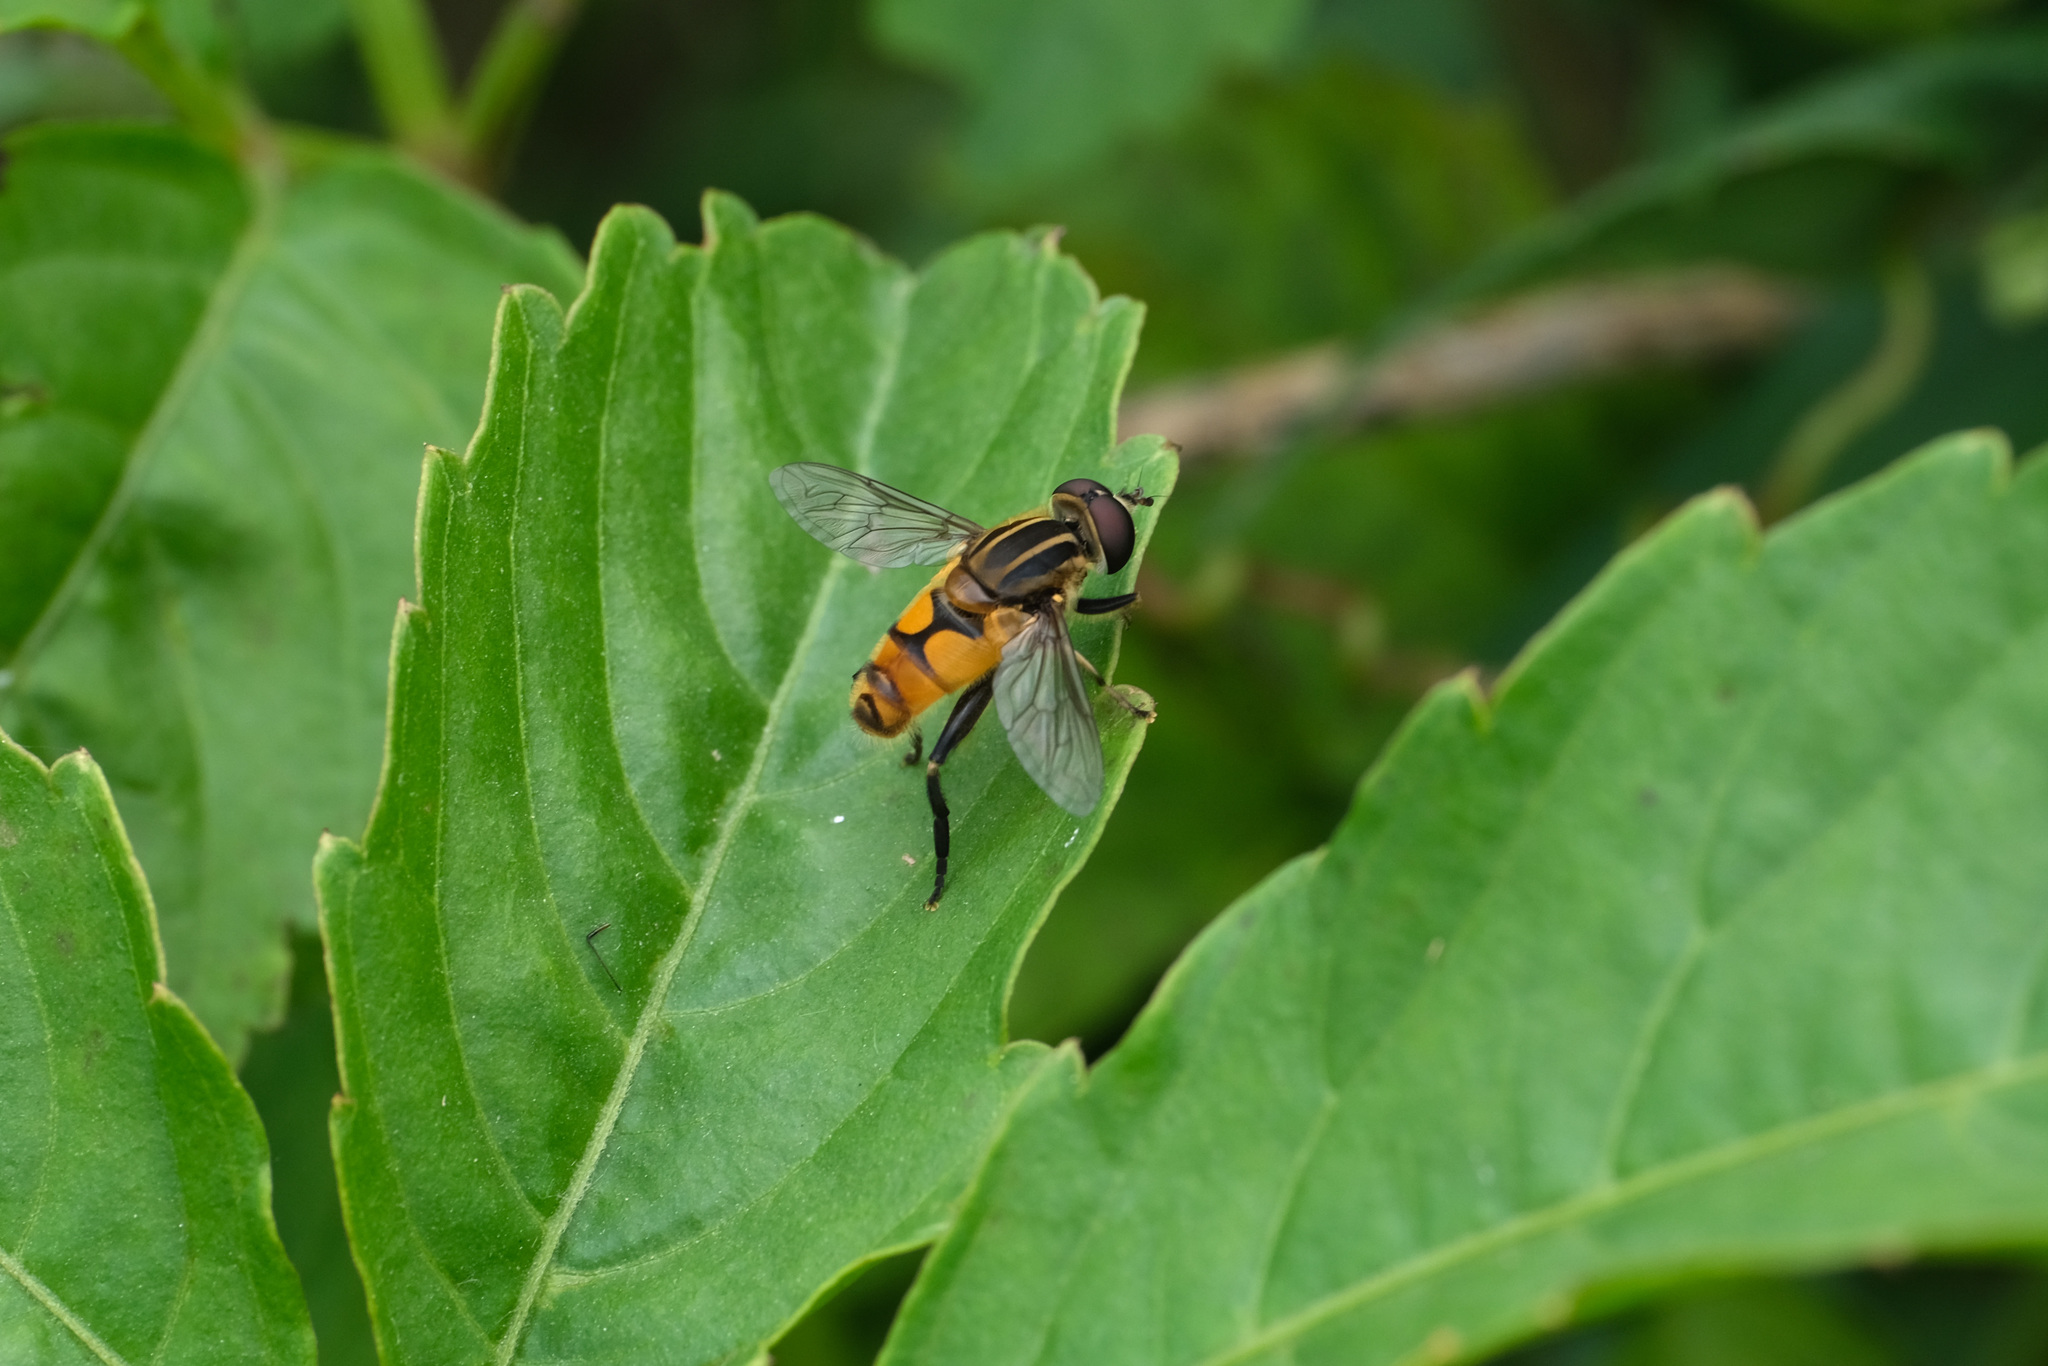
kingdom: Animalia
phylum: Arthropoda
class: Insecta
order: Diptera
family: Syrphidae
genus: Mesembrius
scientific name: Mesembrius bengalensis
